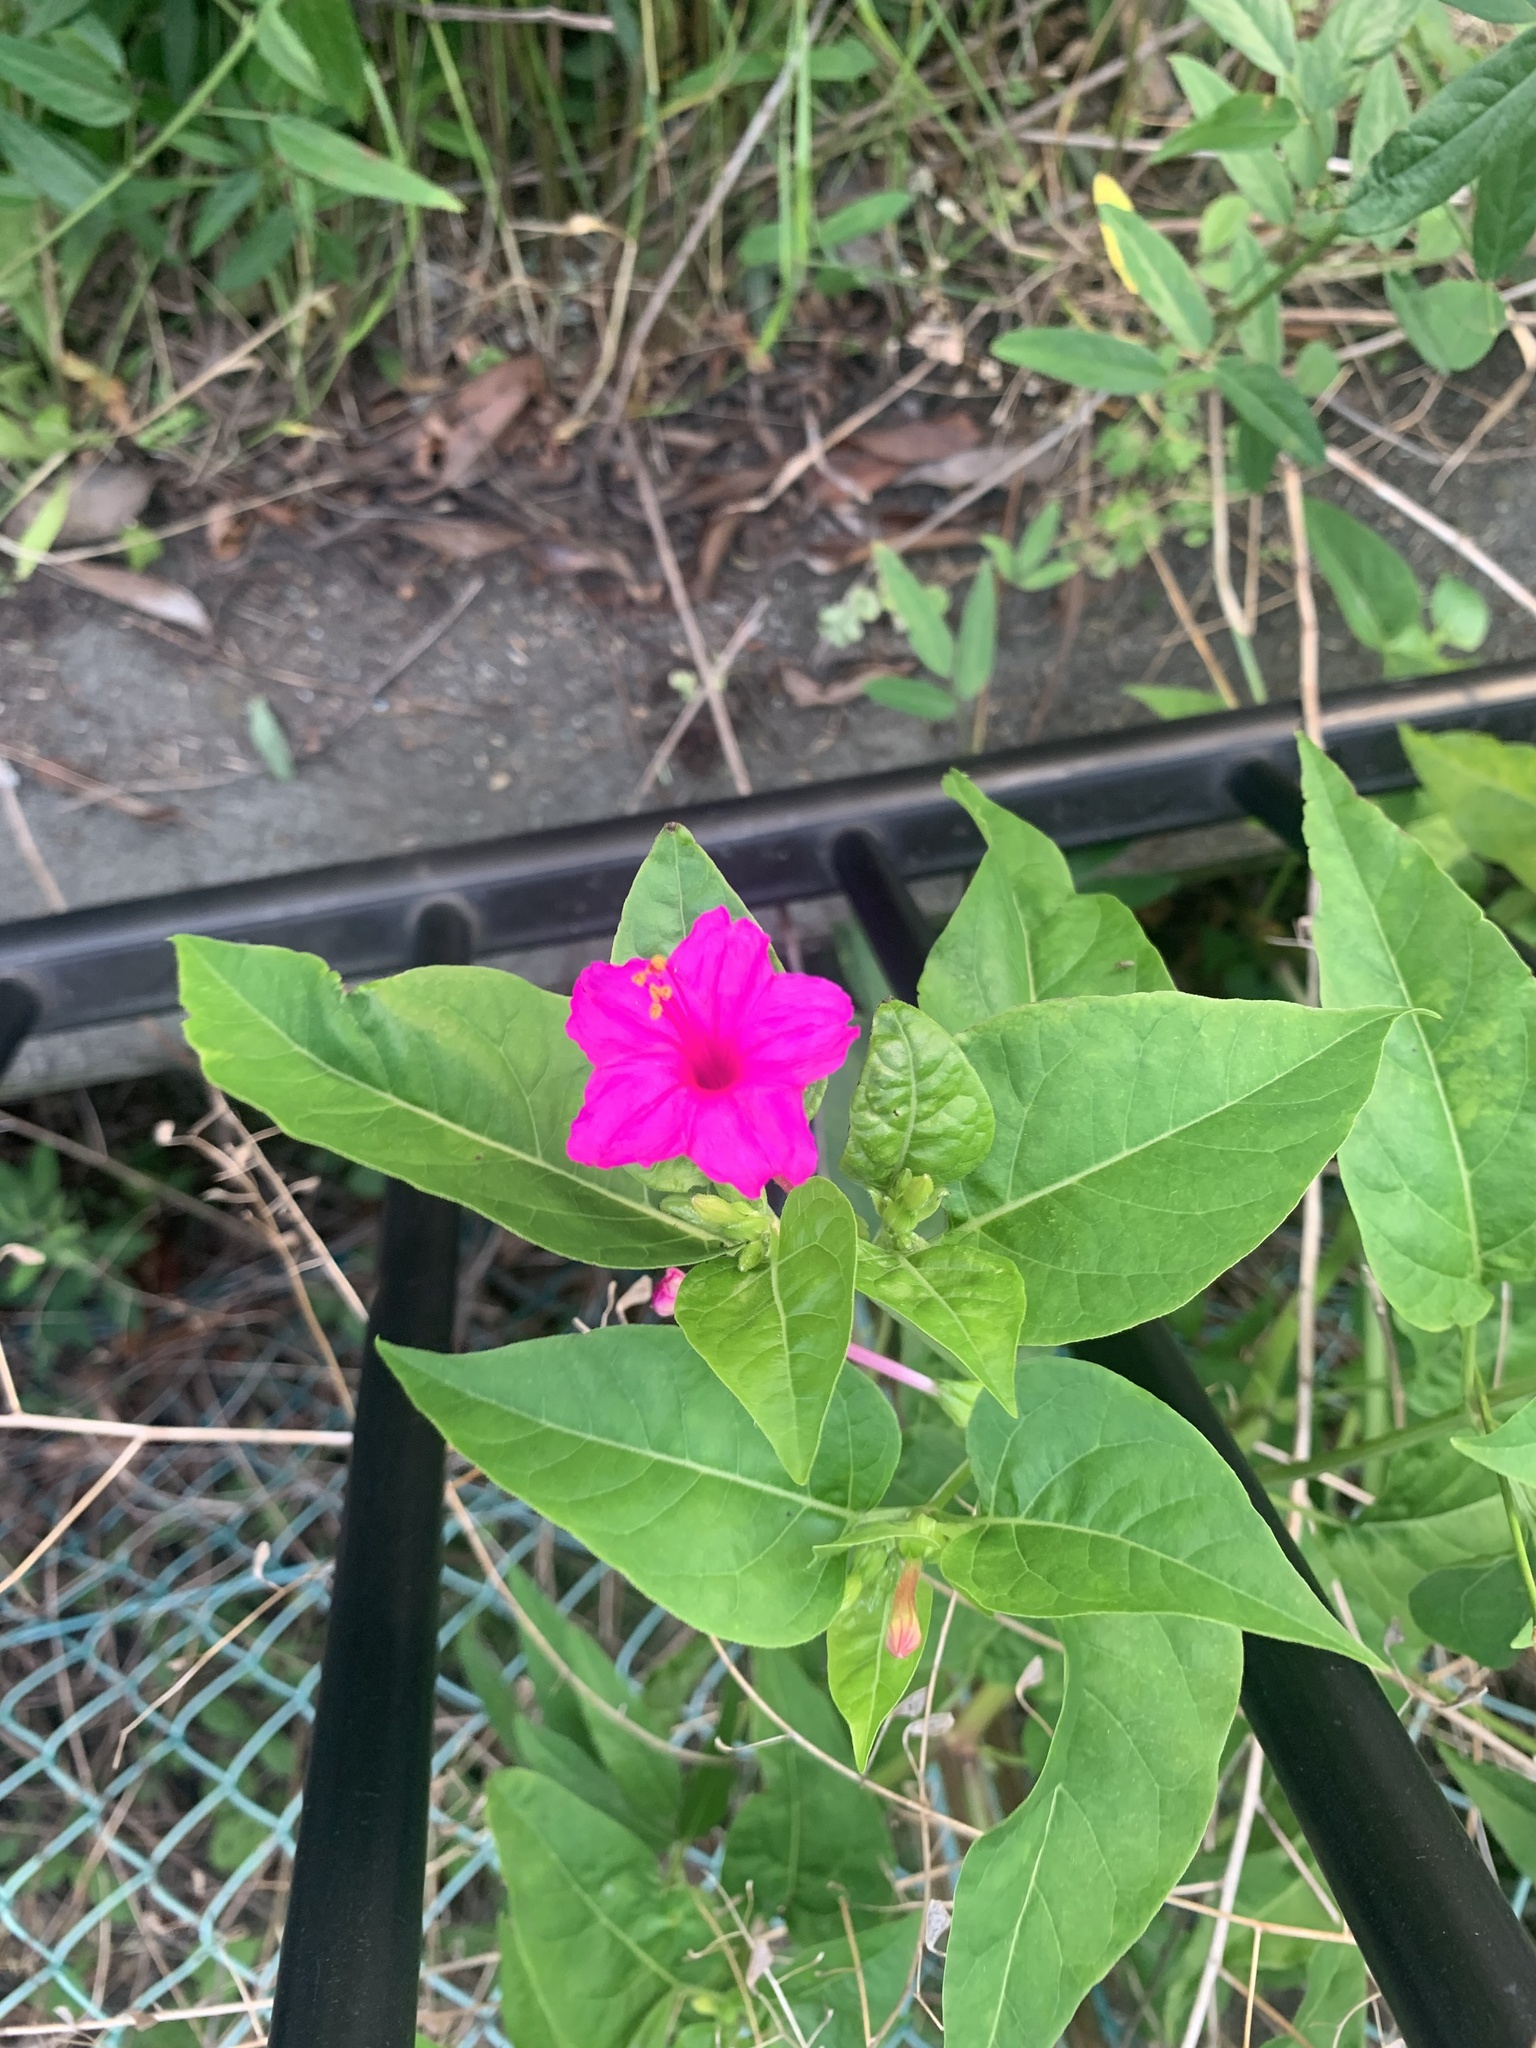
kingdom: Plantae
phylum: Tracheophyta
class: Magnoliopsida
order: Caryophyllales
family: Nyctaginaceae
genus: Mirabilis
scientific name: Mirabilis jalapa
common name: Marvel-of-peru
